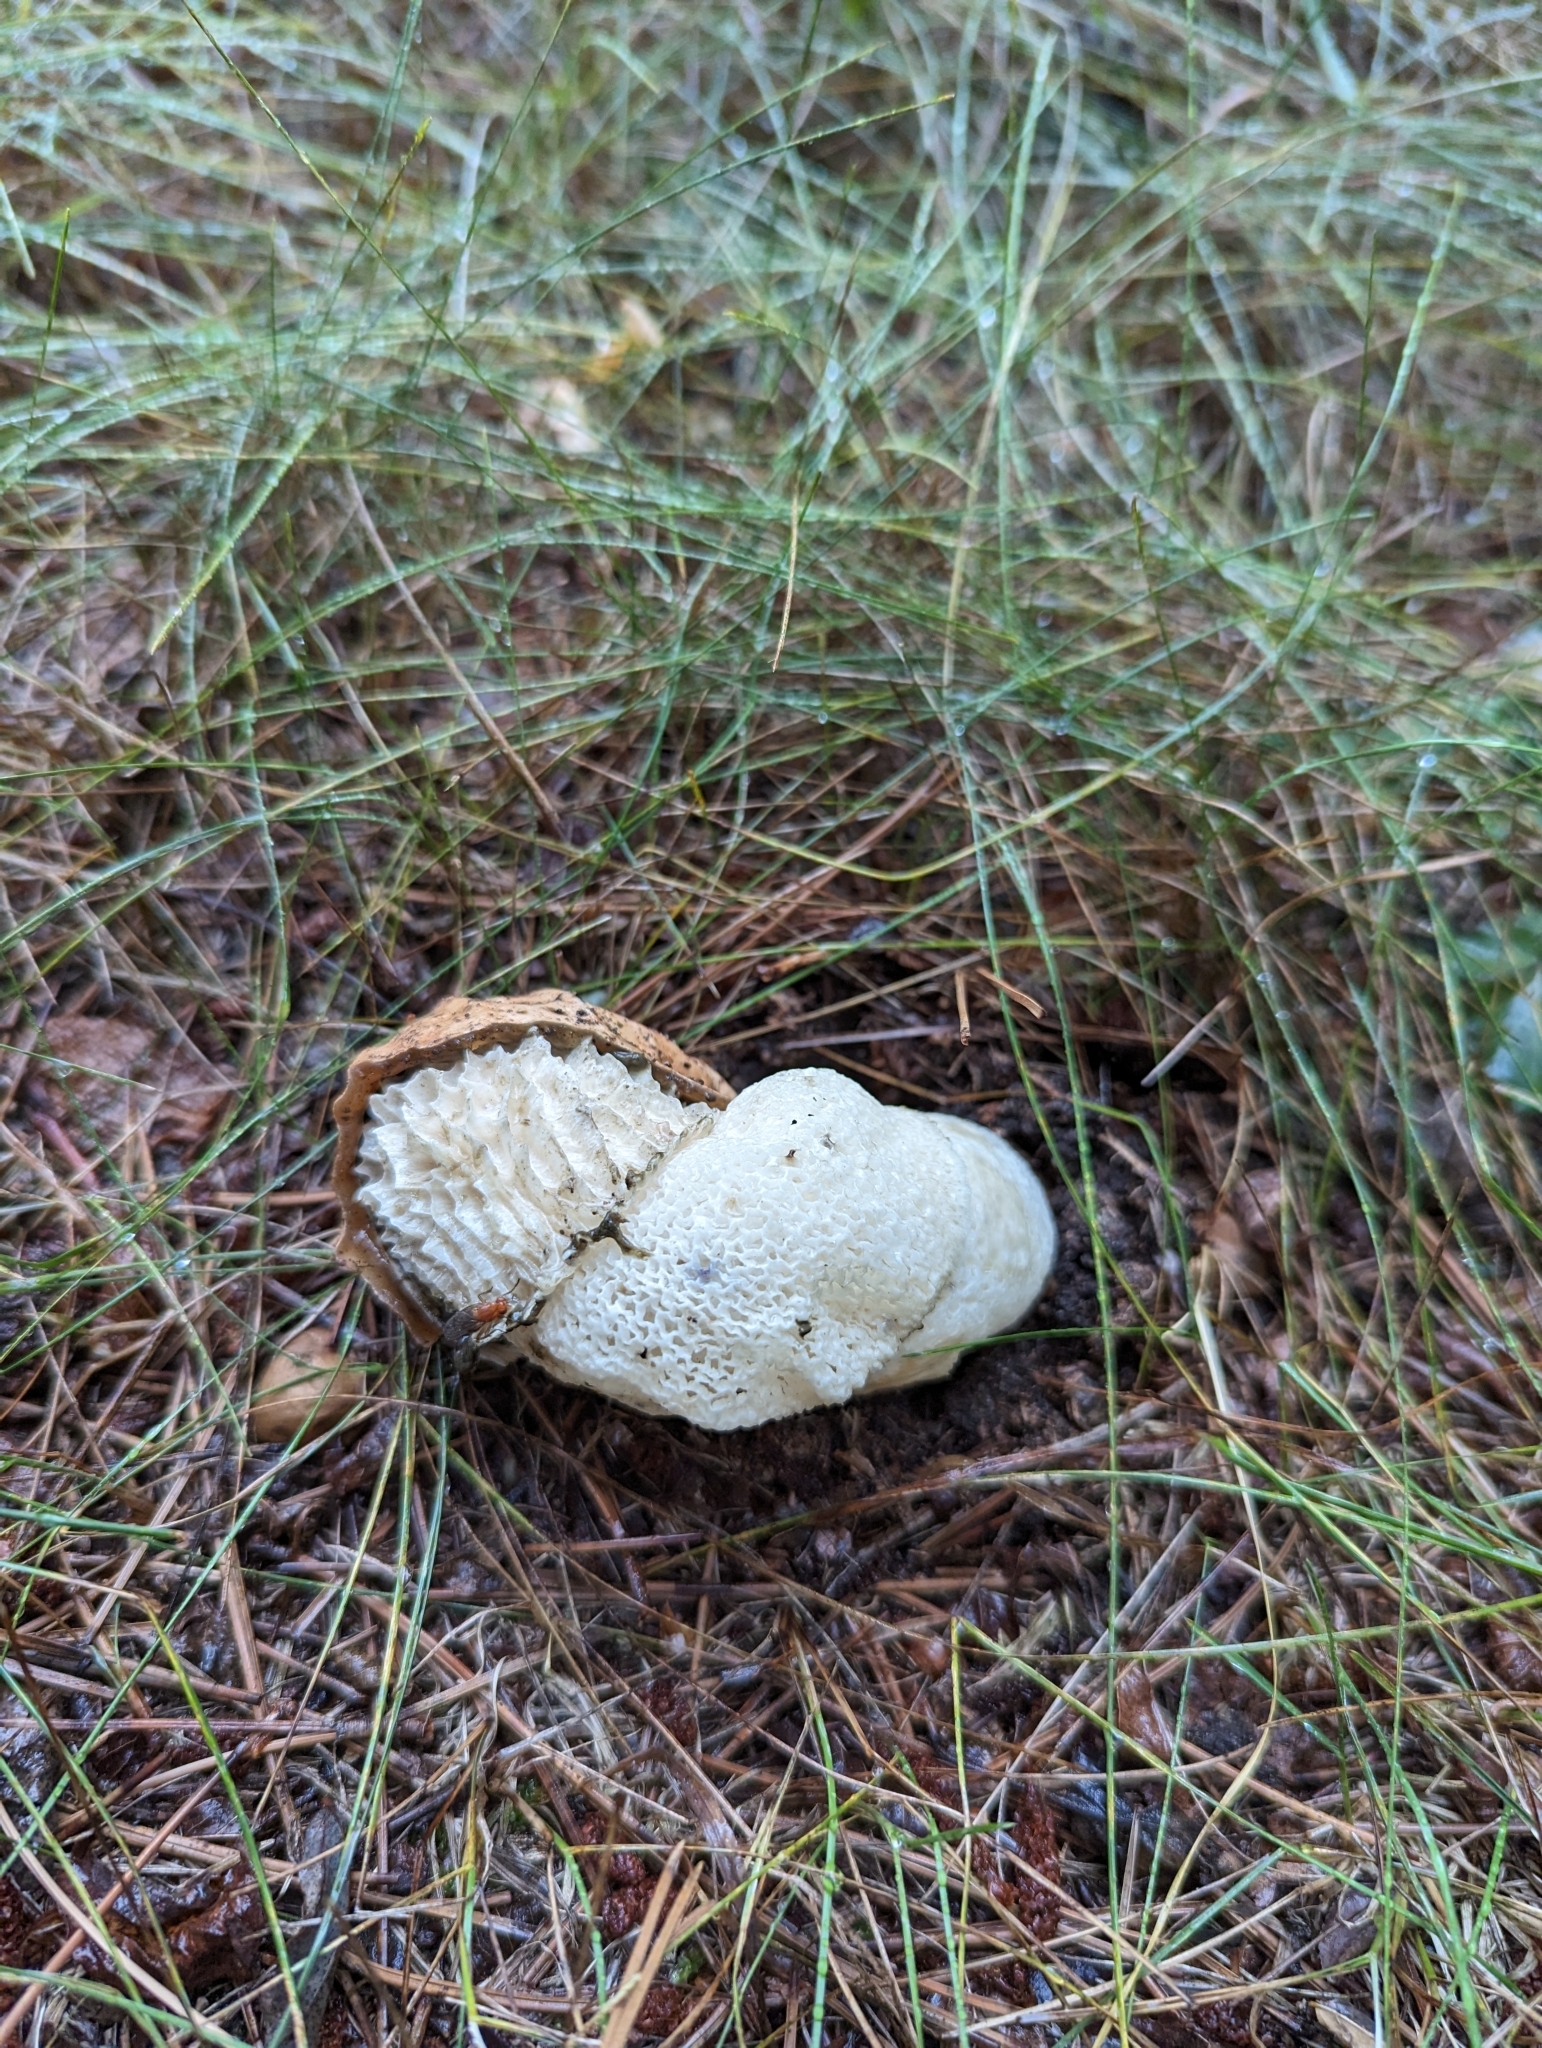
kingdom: Fungi
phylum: Basidiomycota
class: Agaricomycetes
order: Phallales
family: Phallaceae
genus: Phallus
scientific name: Phallus indusiatus
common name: Bridal veil stinkhorn
